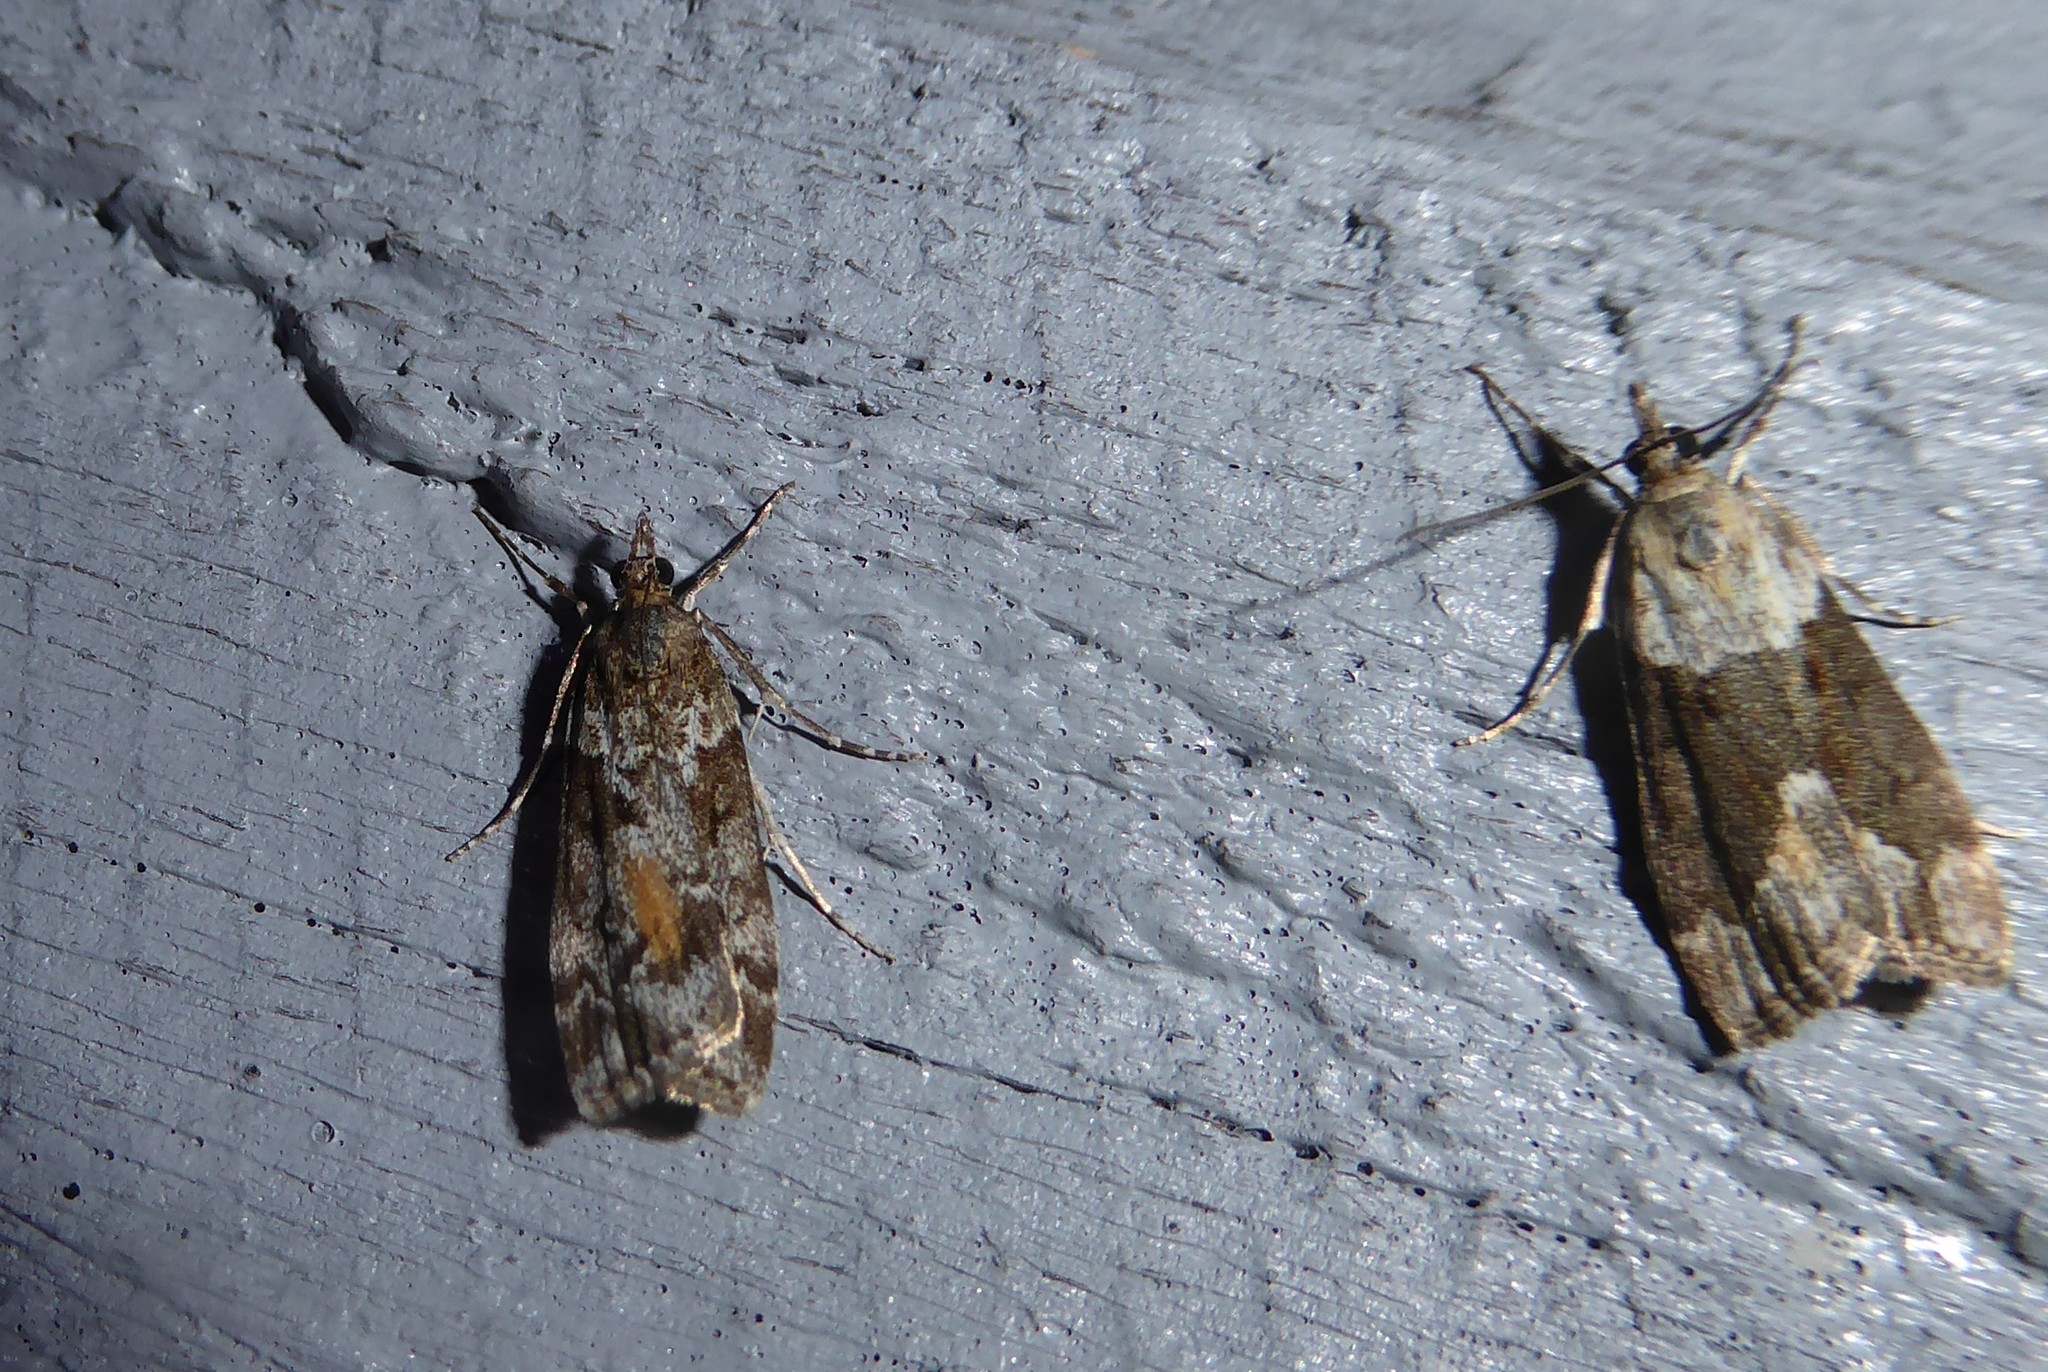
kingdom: Animalia
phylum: Arthropoda
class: Insecta
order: Lepidoptera
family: Crambidae
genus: Eudonia
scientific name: Eudonia submarginalis
